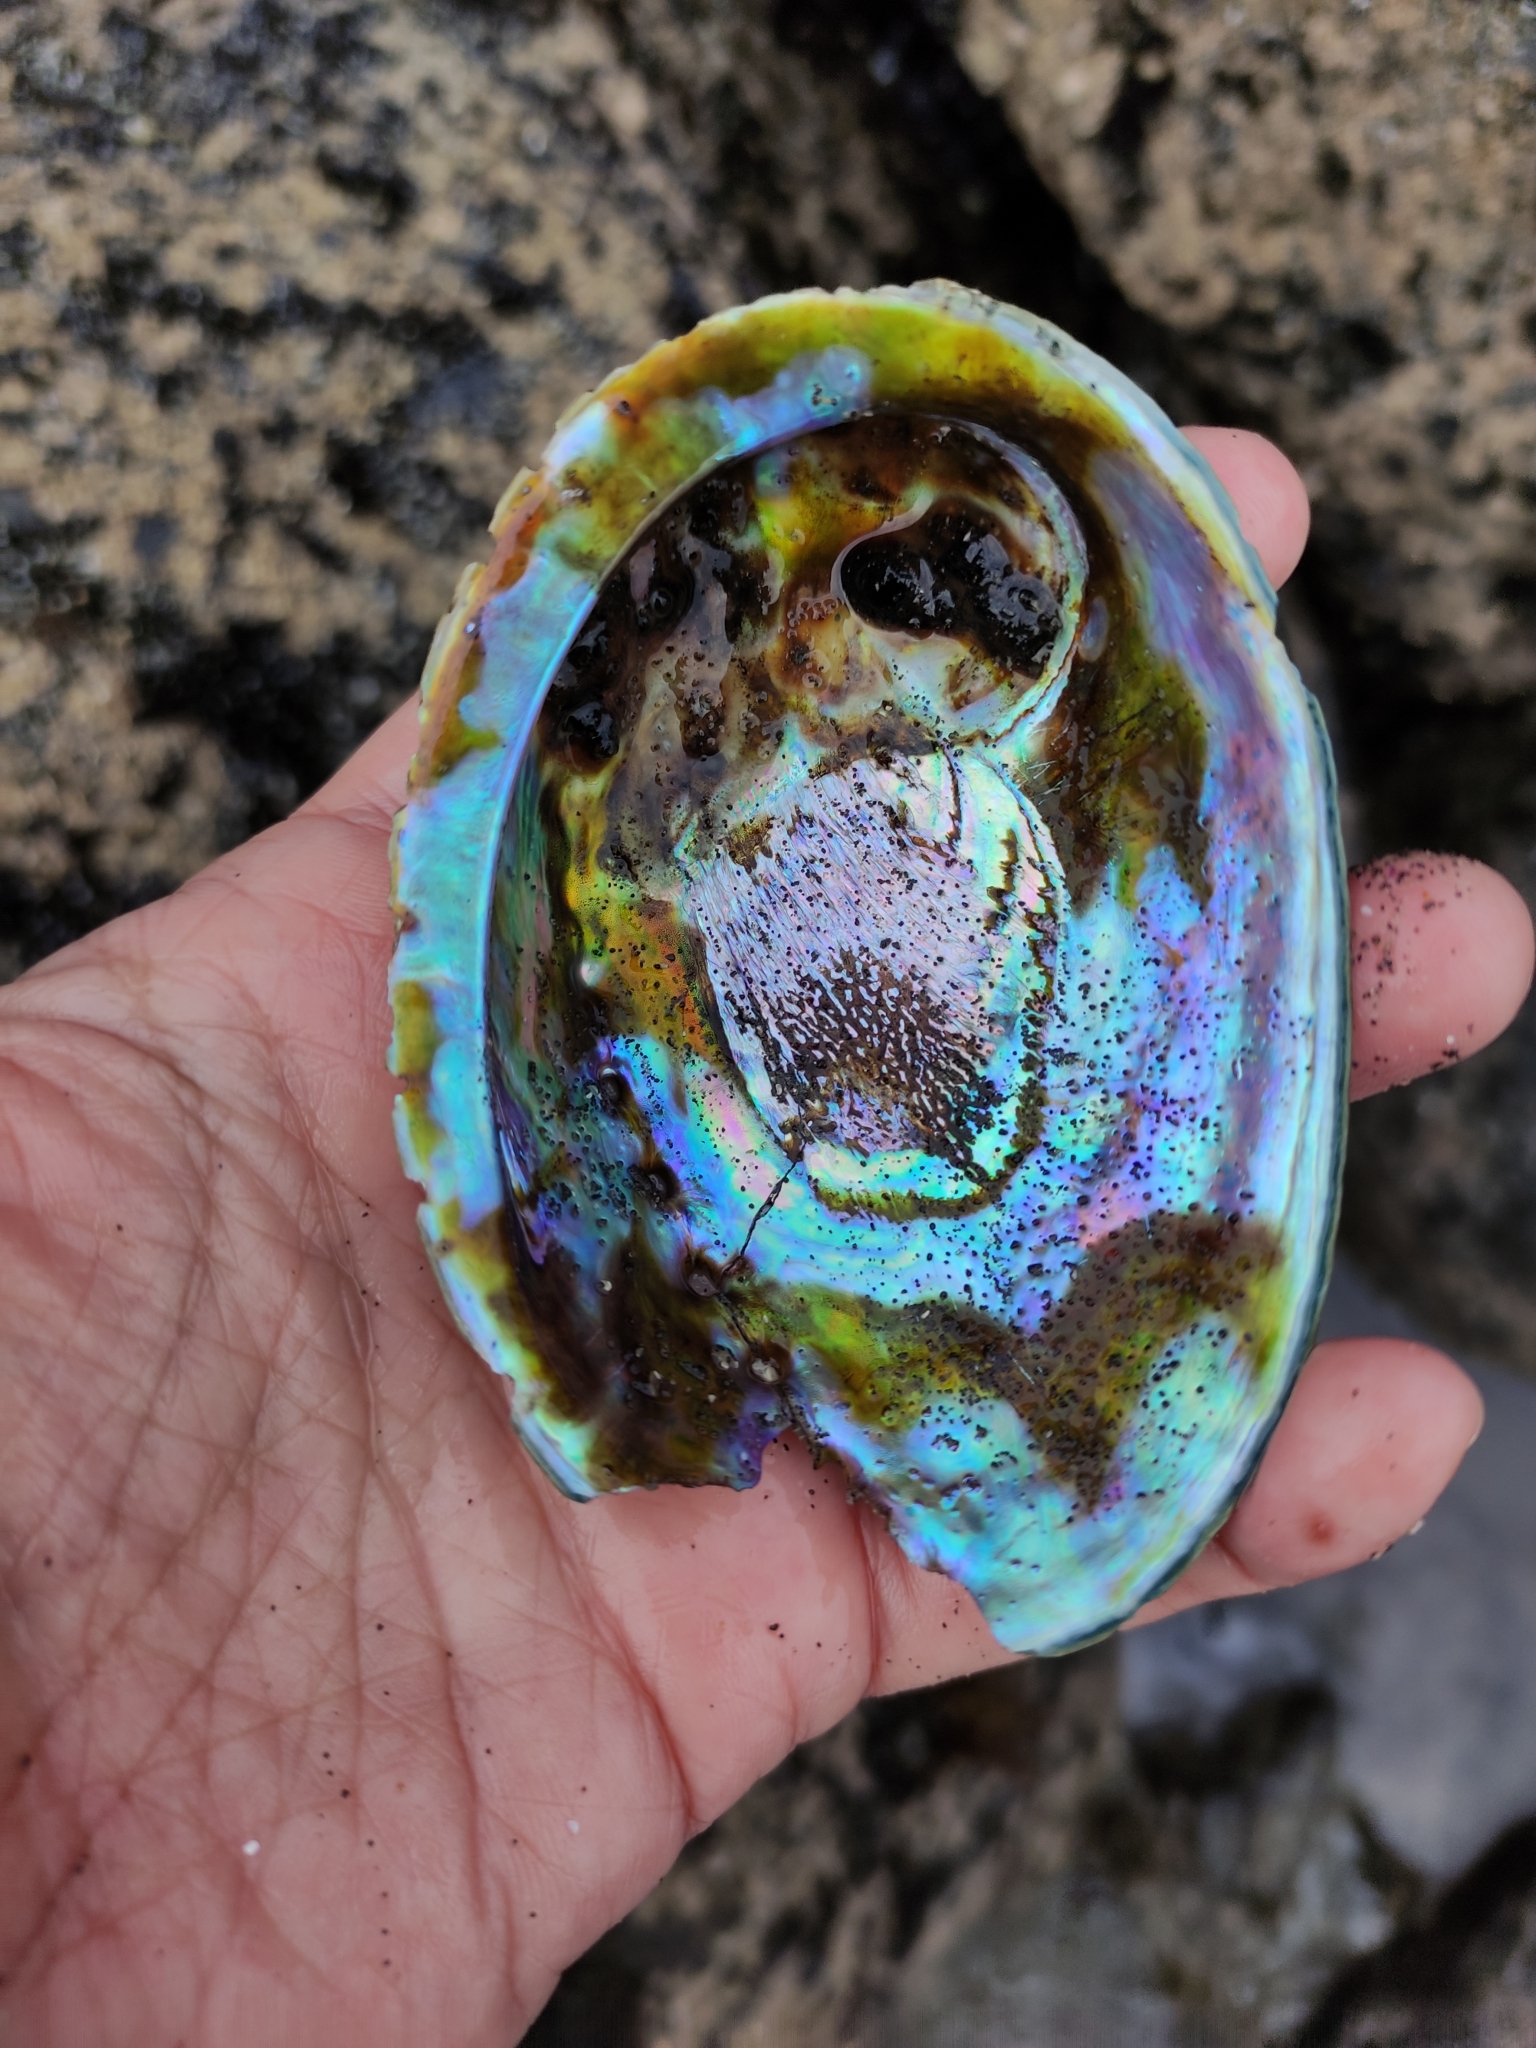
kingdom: Animalia
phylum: Mollusca
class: Gastropoda
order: Lepetellida
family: Haliotidae
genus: Haliotis
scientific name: Haliotis iris
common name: Abalone
